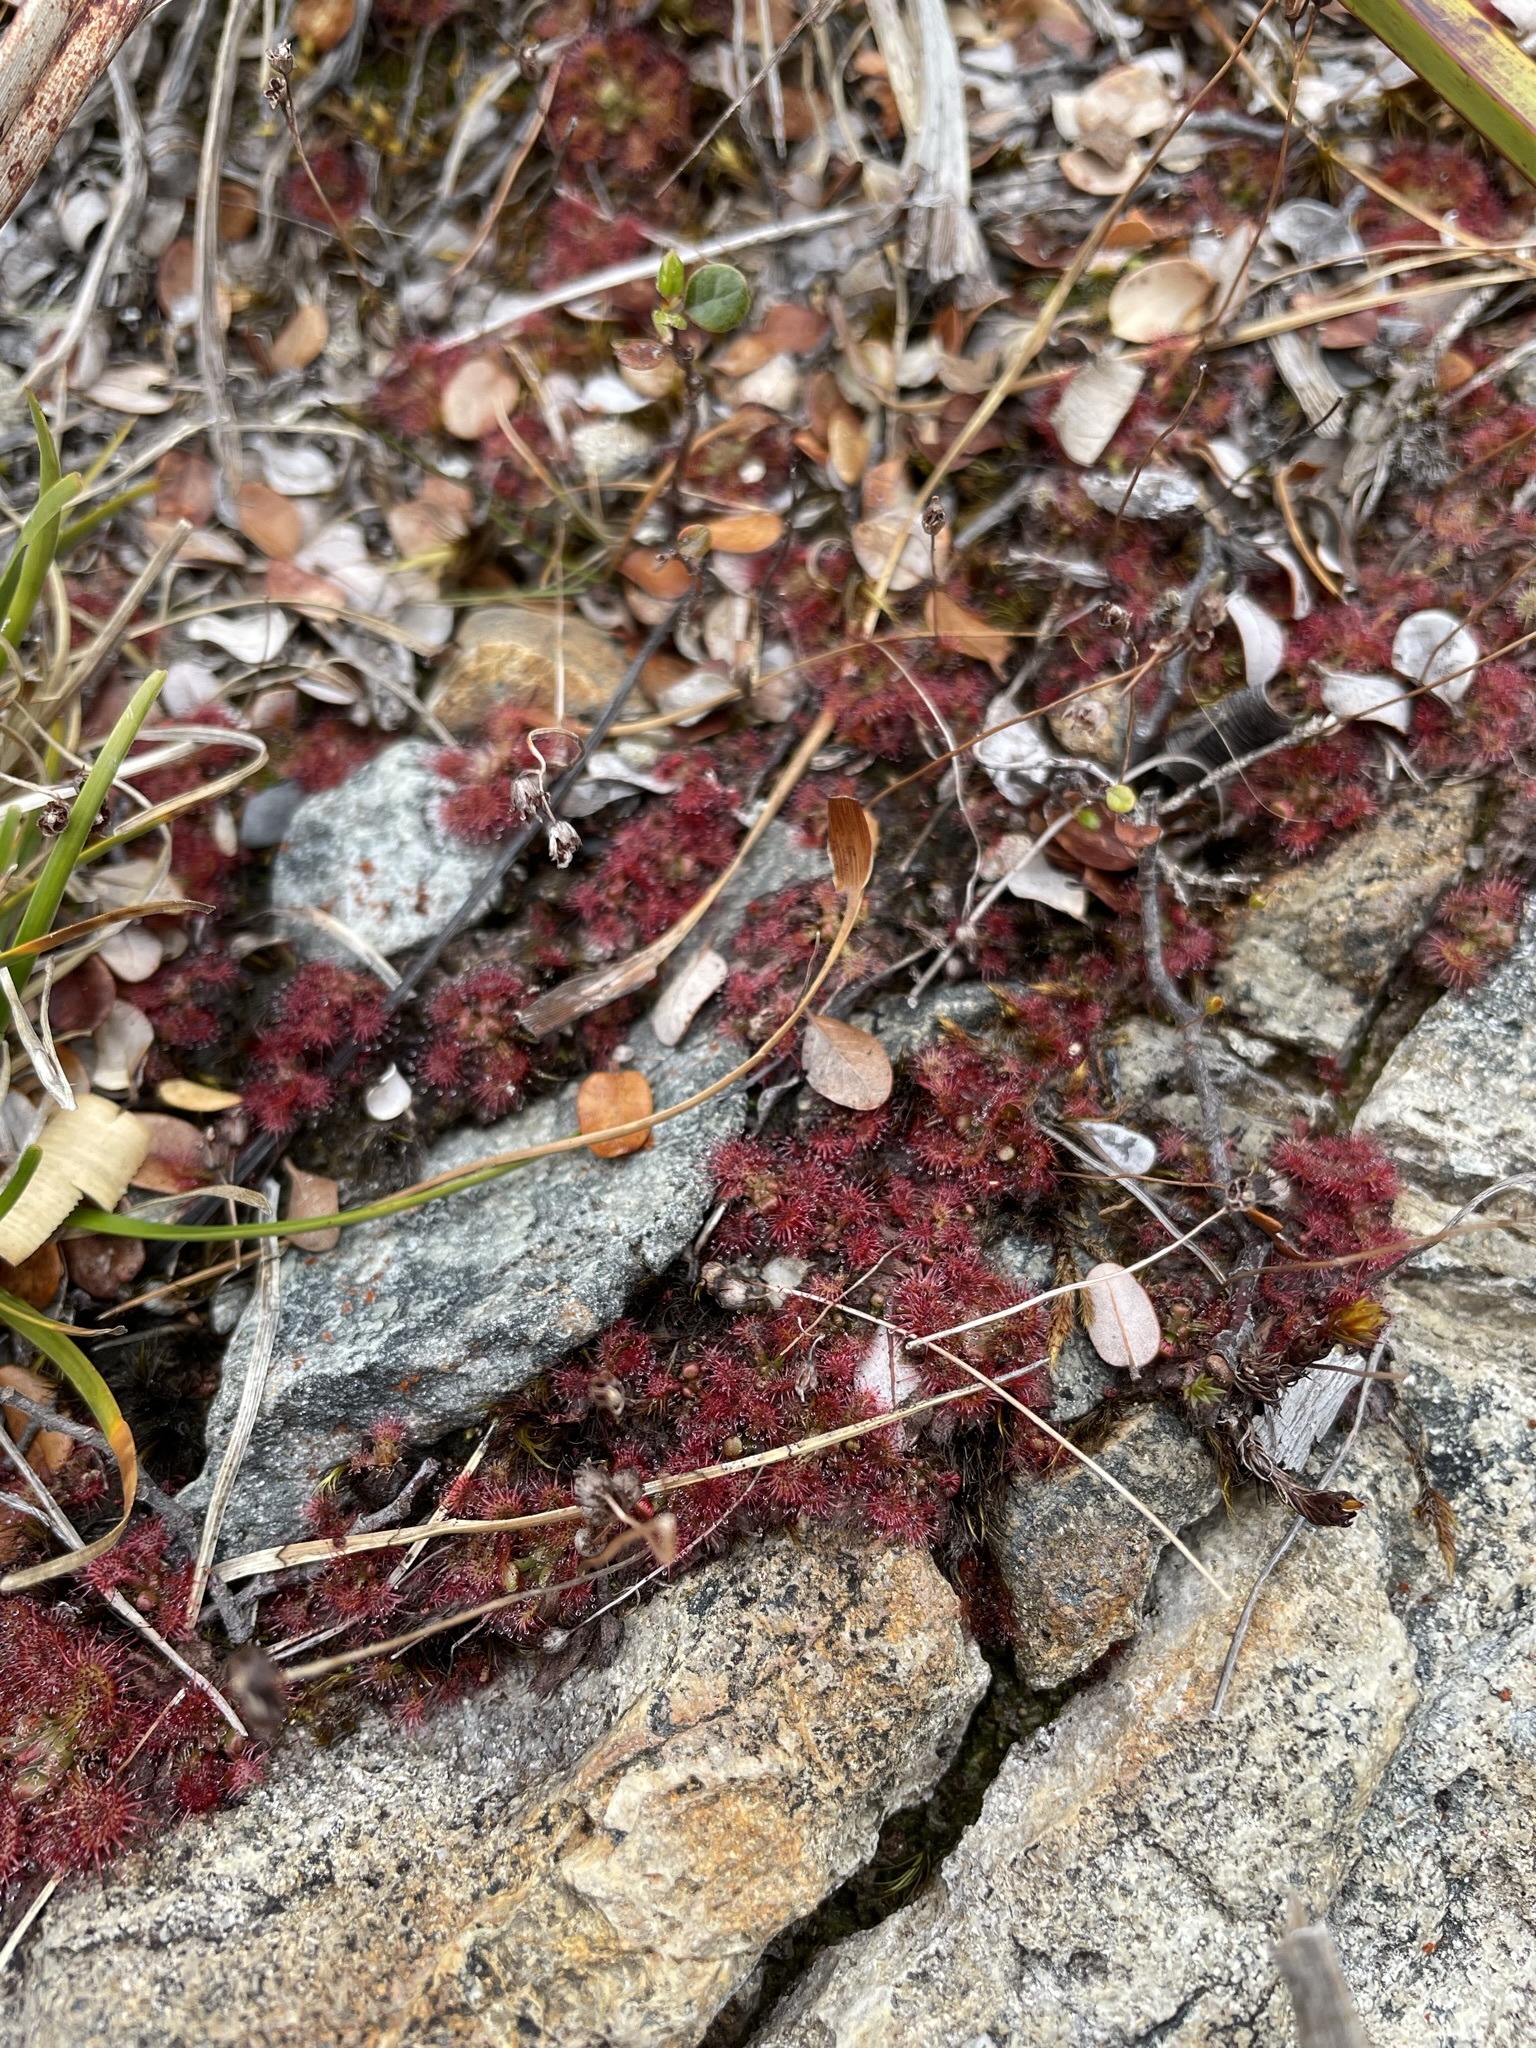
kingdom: Plantae
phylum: Tracheophyta
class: Magnoliopsida
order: Caryophyllales
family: Droseraceae
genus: Drosera
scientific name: Drosera spatulata
